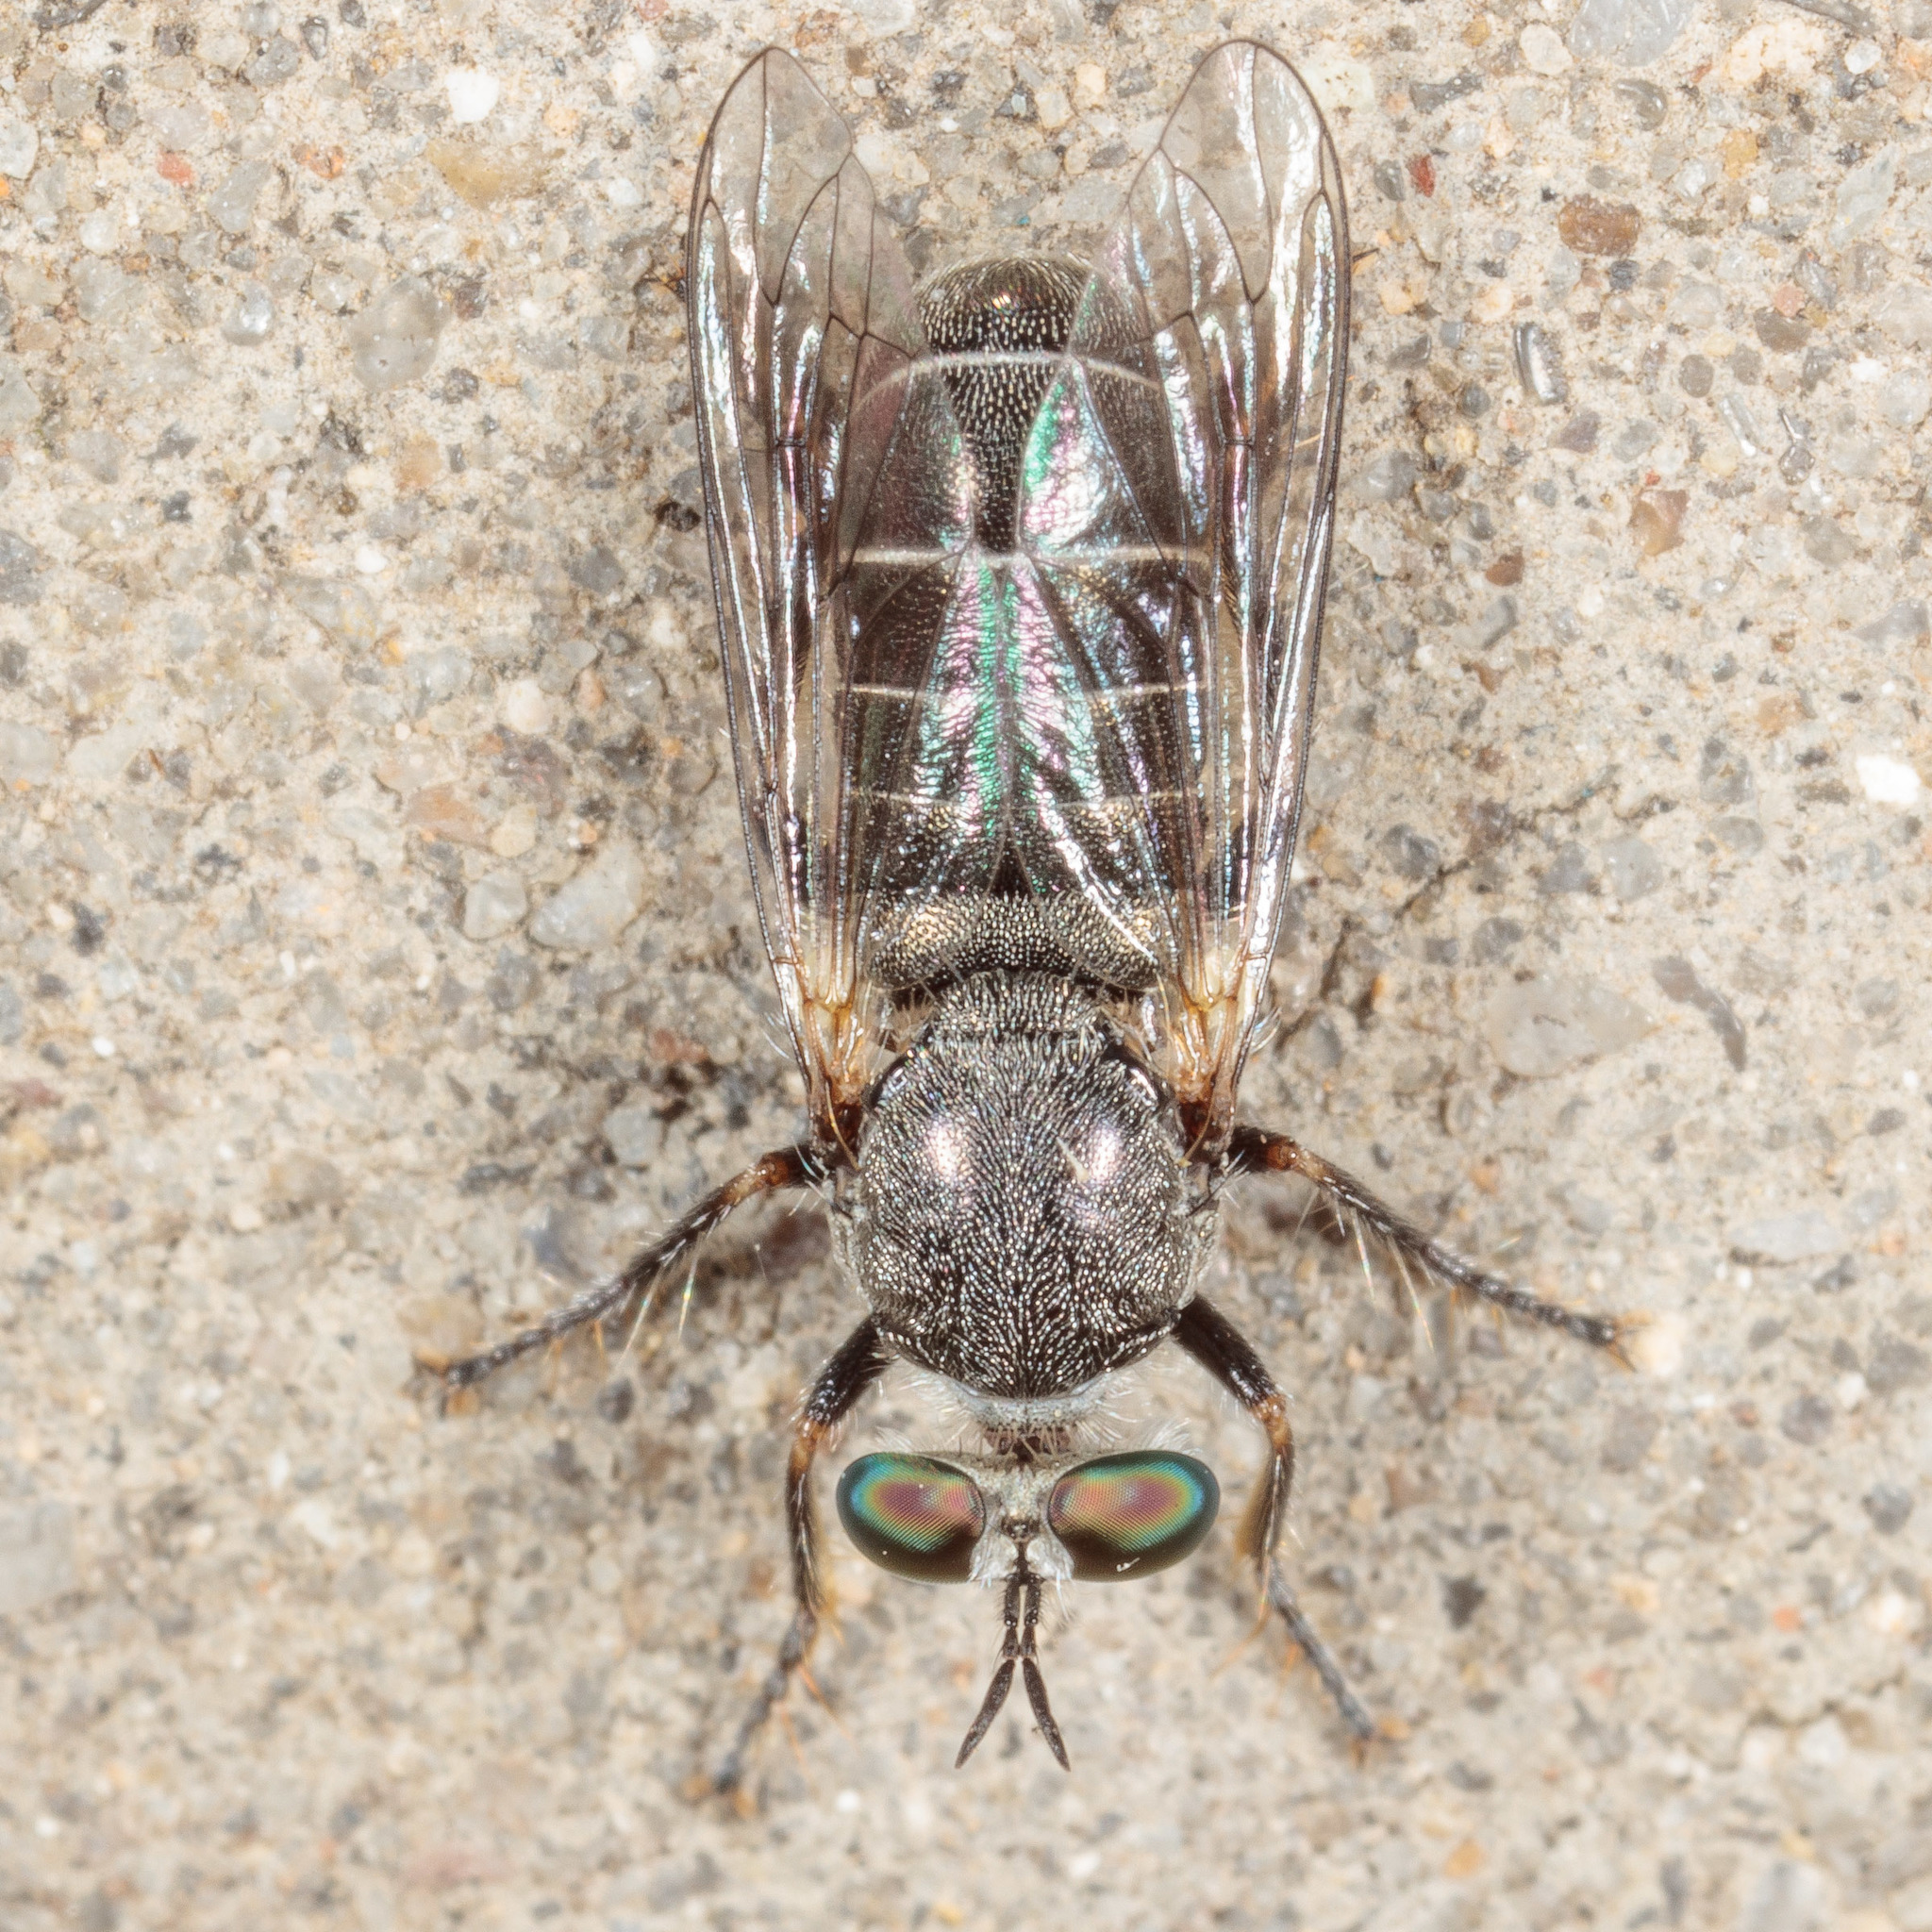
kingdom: Animalia
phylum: Arthropoda
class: Insecta
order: Diptera
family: Asilidae
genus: Atomosia
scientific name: Atomosia melanopogon
